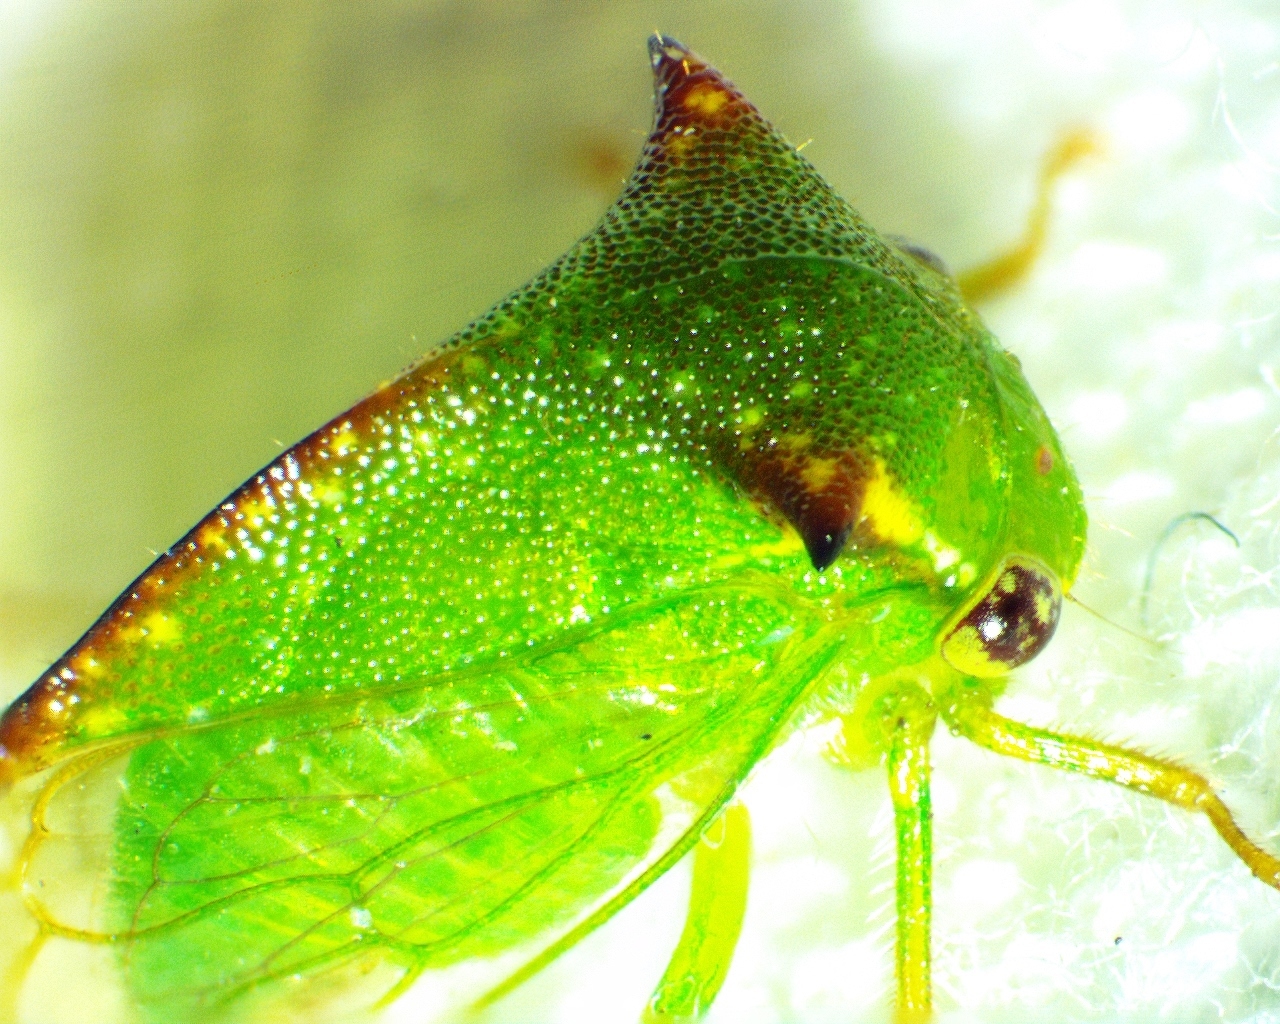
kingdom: Animalia
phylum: Arthropoda
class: Insecta
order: Hemiptera
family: Membracidae
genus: Stictocephala
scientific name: Stictocephala militaris
